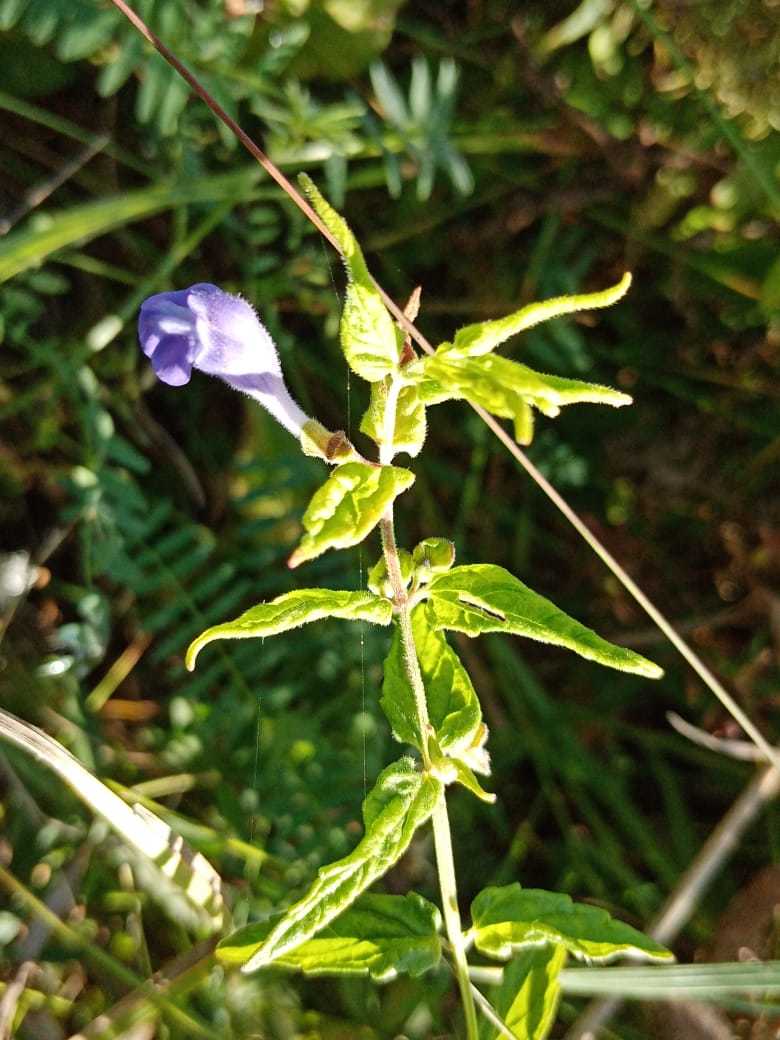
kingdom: Plantae
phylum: Tracheophyta
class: Magnoliopsida
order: Lamiales
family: Lamiaceae
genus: Scutellaria
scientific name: Scutellaria galericulata
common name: Skullcap
